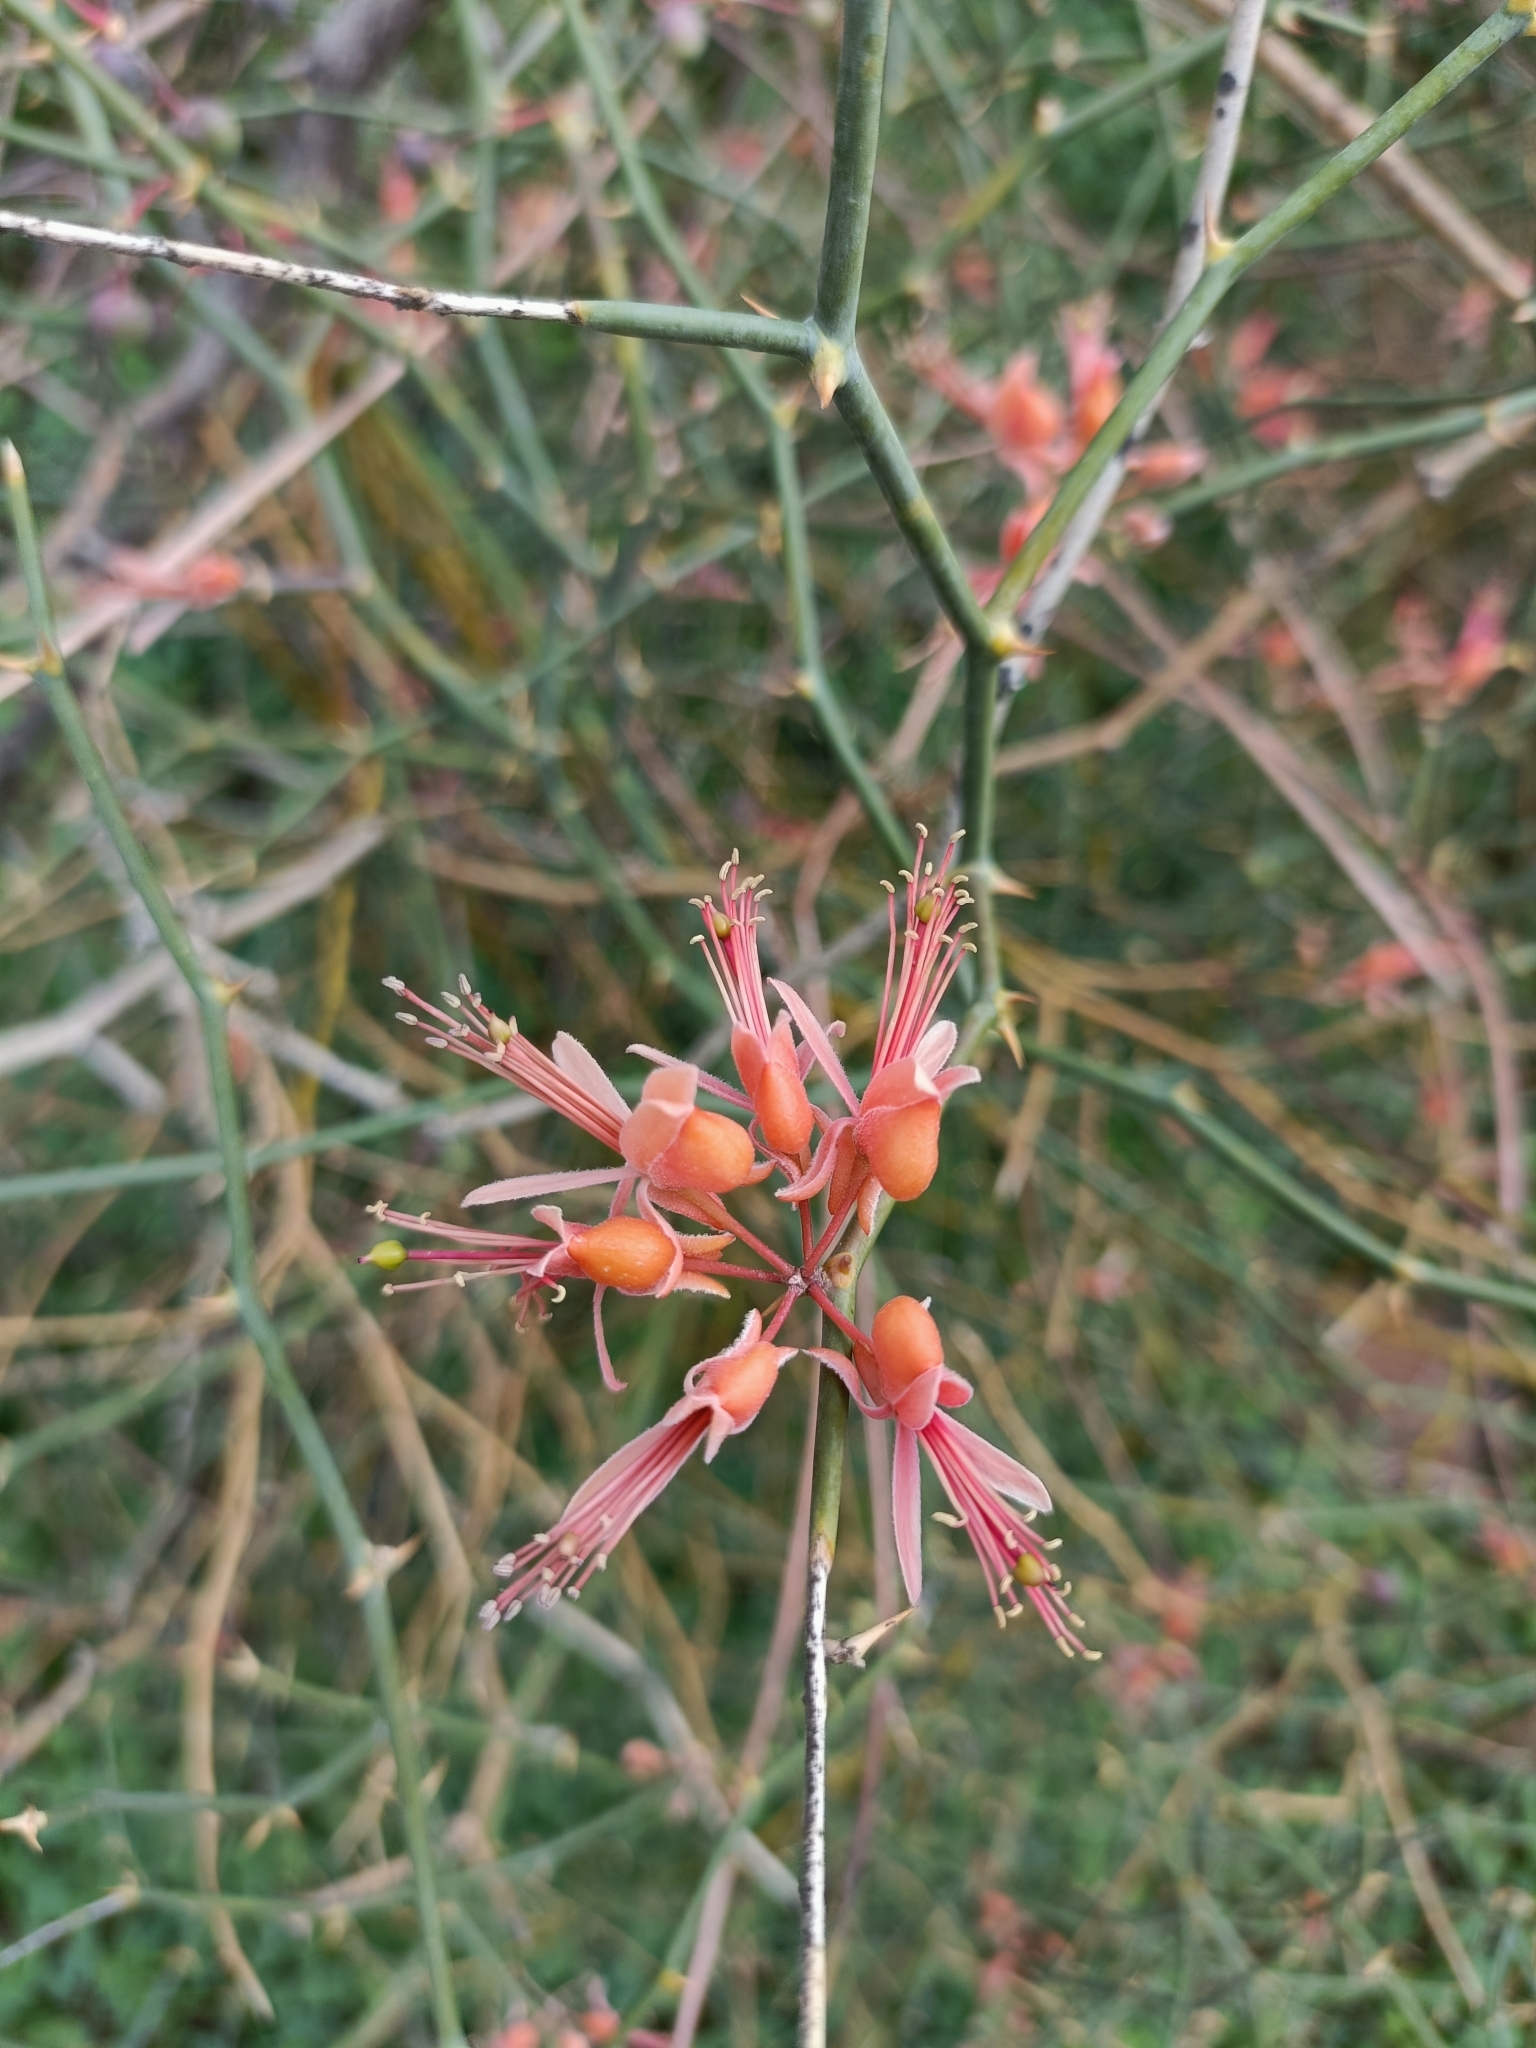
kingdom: Plantae
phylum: Tracheophyta
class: Magnoliopsida
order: Brassicales
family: Capparaceae
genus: Capparis
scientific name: Capparis decidua
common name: Sodada
